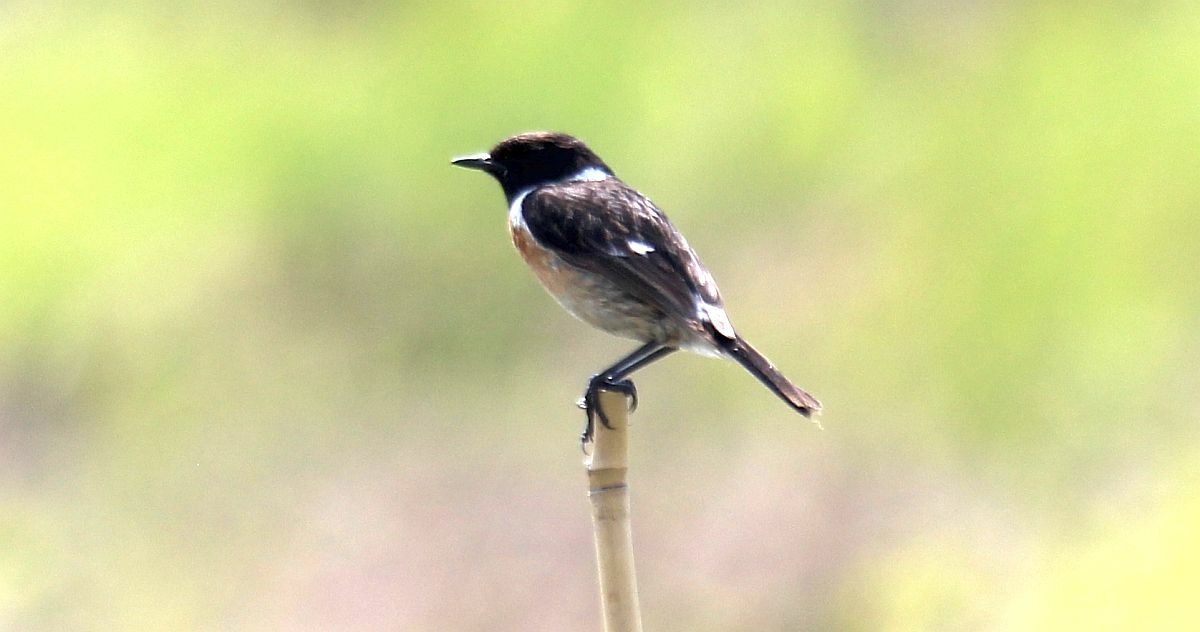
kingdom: Animalia
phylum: Chordata
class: Aves
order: Passeriformes
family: Muscicapidae
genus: Saxicola
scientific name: Saxicola rubicola
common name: European stonechat
